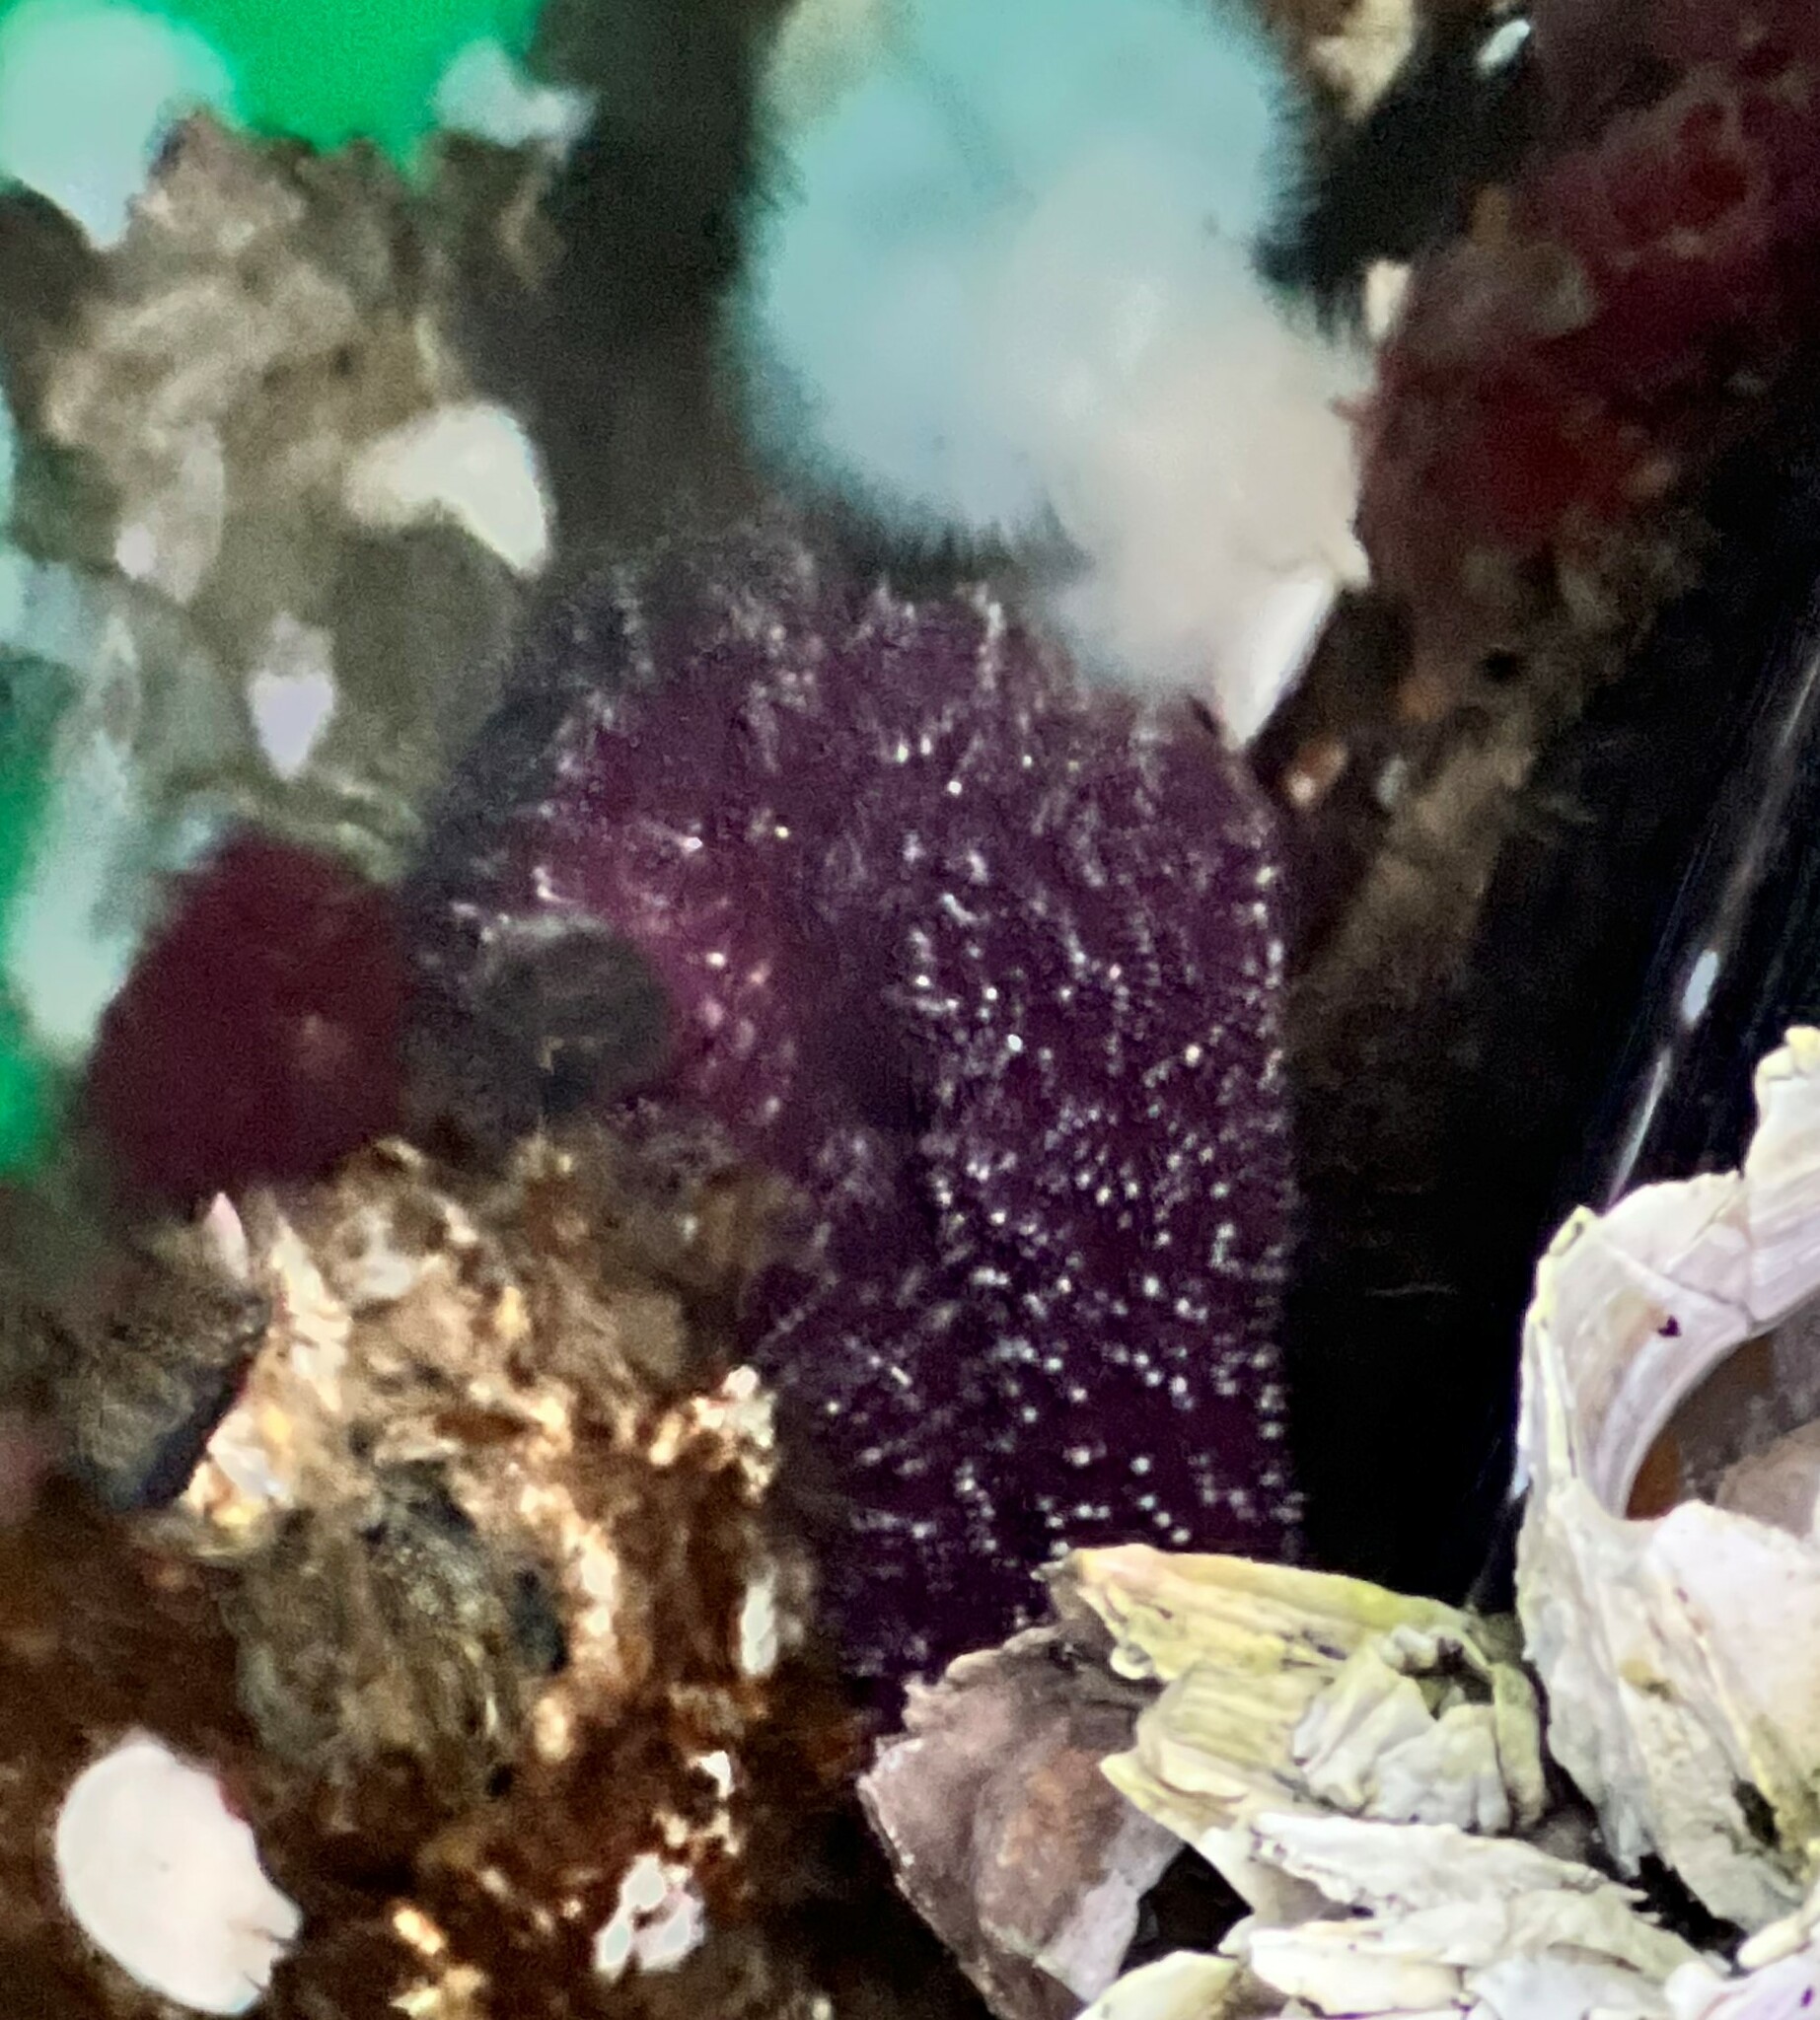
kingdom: Animalia
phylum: Echinodermata
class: Asteroidea
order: Forcipulatida
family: Asteriidae
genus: Pisaster
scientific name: Pisaster ochraceus
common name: Ochre stars
